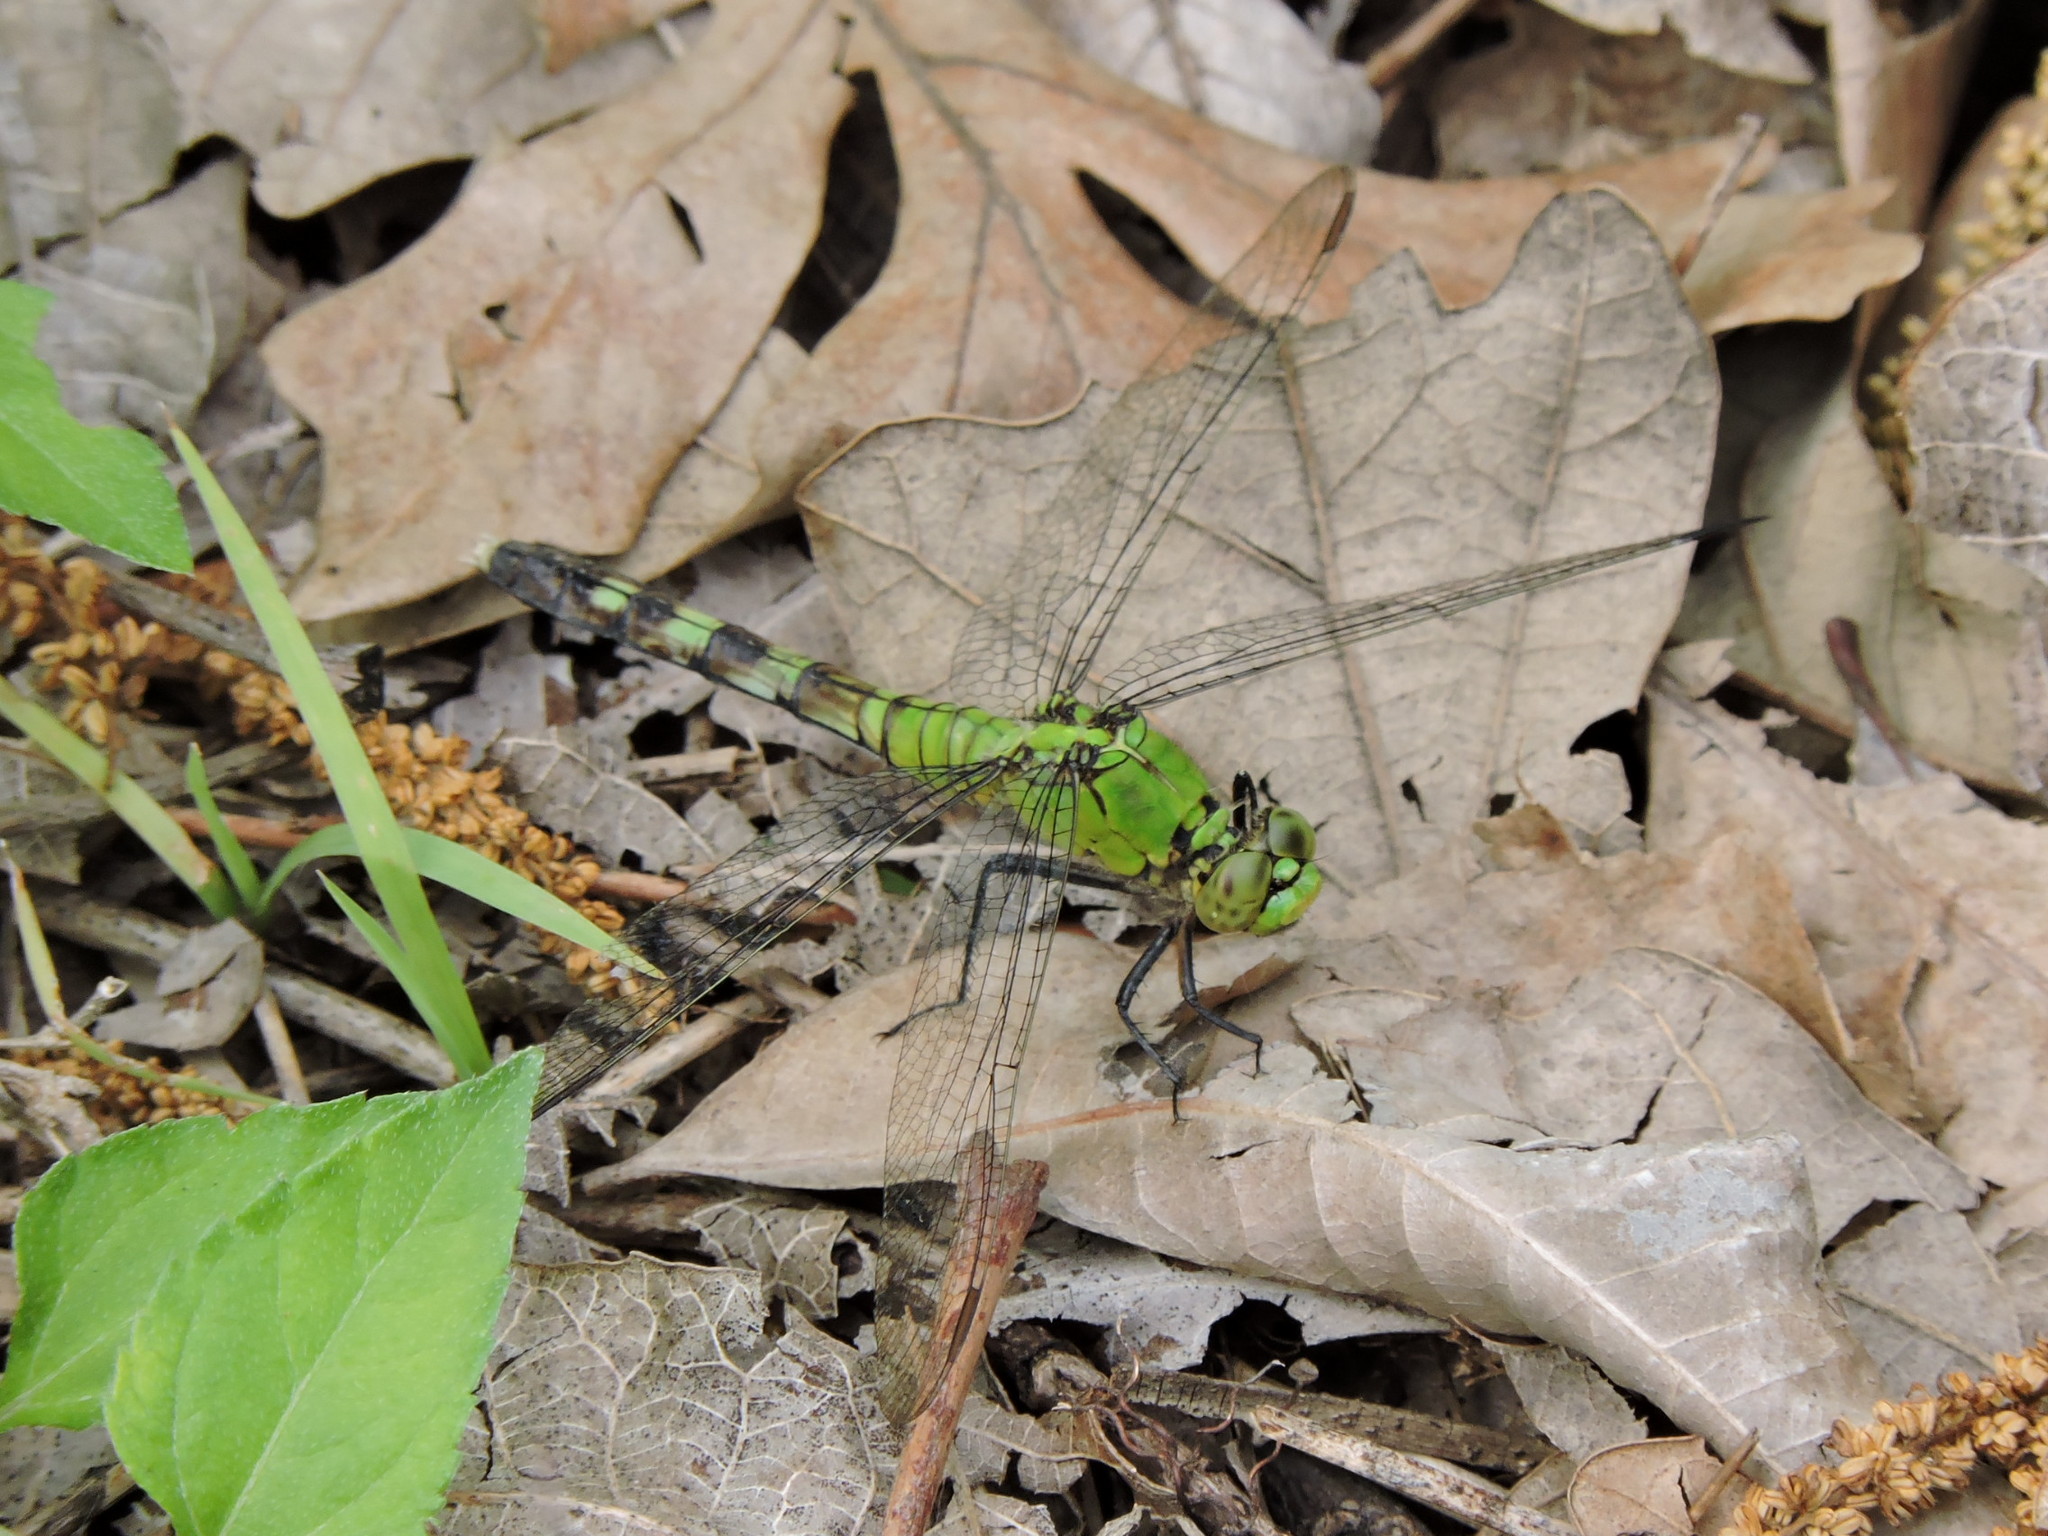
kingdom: Animalia
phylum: Arthropoda
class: Insecta
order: Odonata
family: Libellulidae
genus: Erythemis
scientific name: Erythemis simplicicollis
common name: Eastern pondhawk
